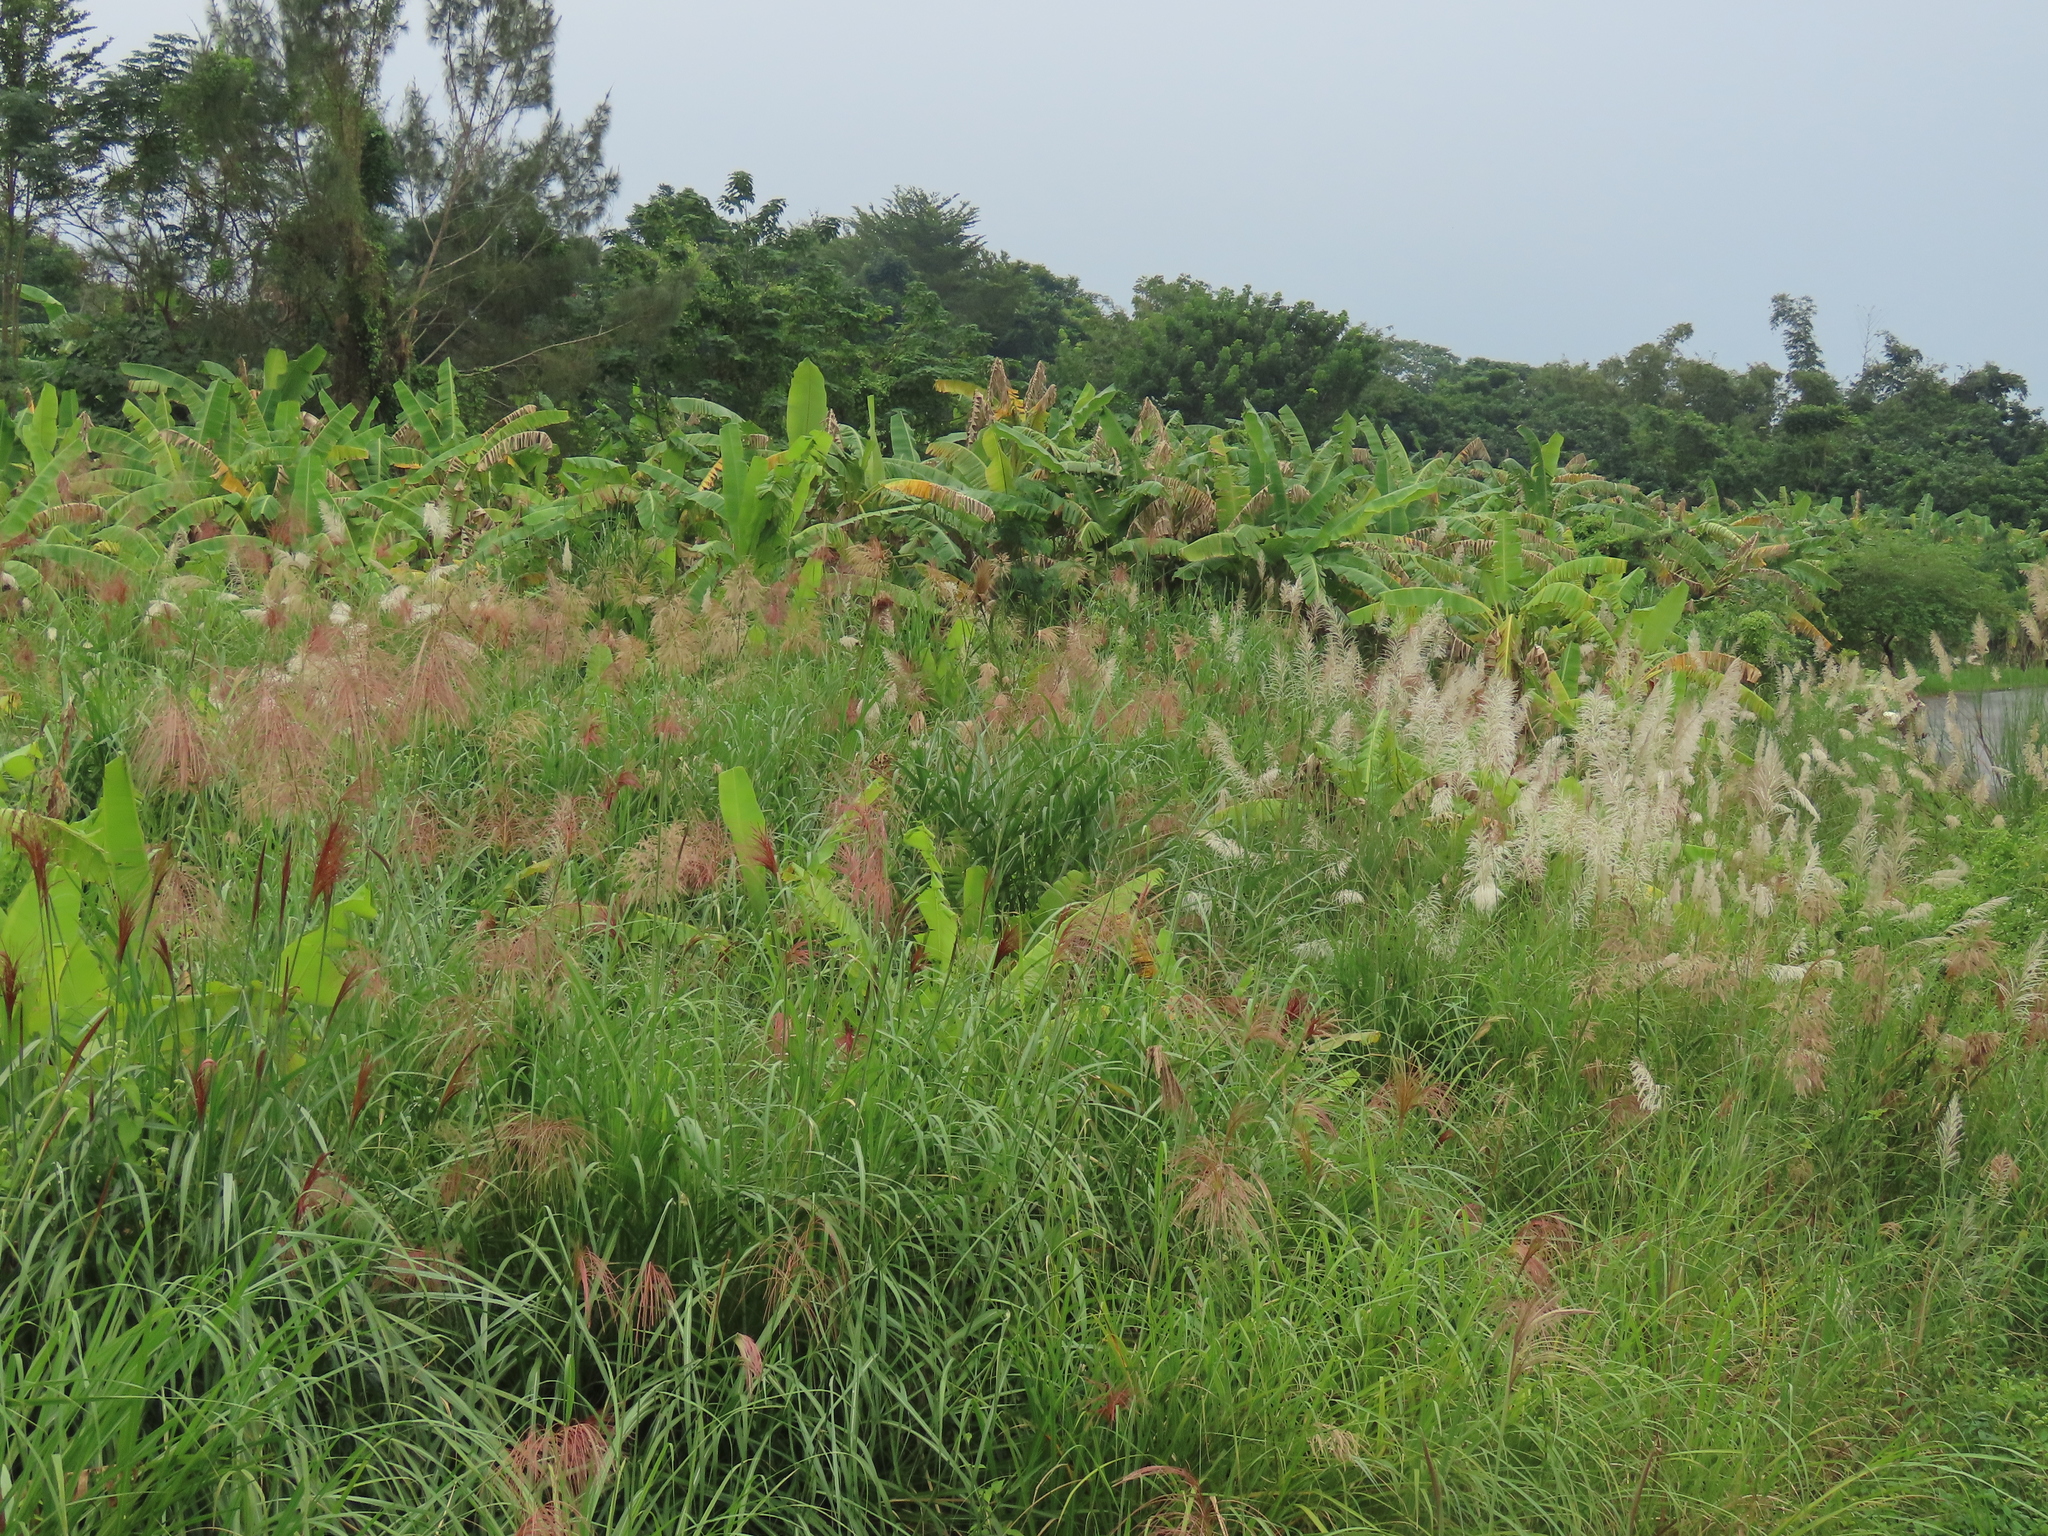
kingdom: Plantae
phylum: Tracheophyta
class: Liliopsida
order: Poales
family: Poaceae
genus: Phragmites
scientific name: Phragmites karka
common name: Tropical reed
